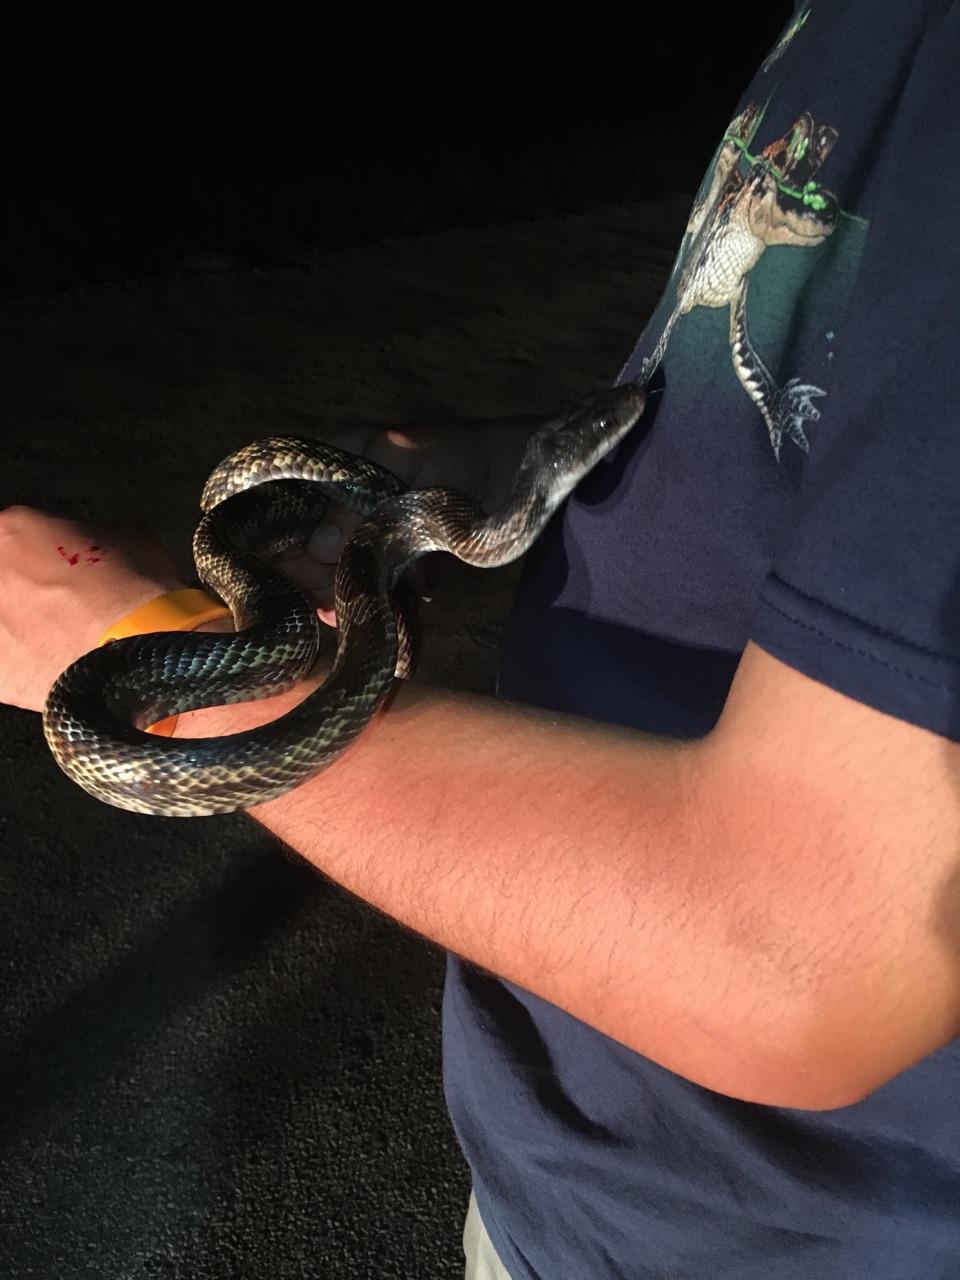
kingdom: Animalia
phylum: Chordata
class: Squamata
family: Colubridae
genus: Pantherophis
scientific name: Pantherophis obsoletus
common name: Black rat snake
